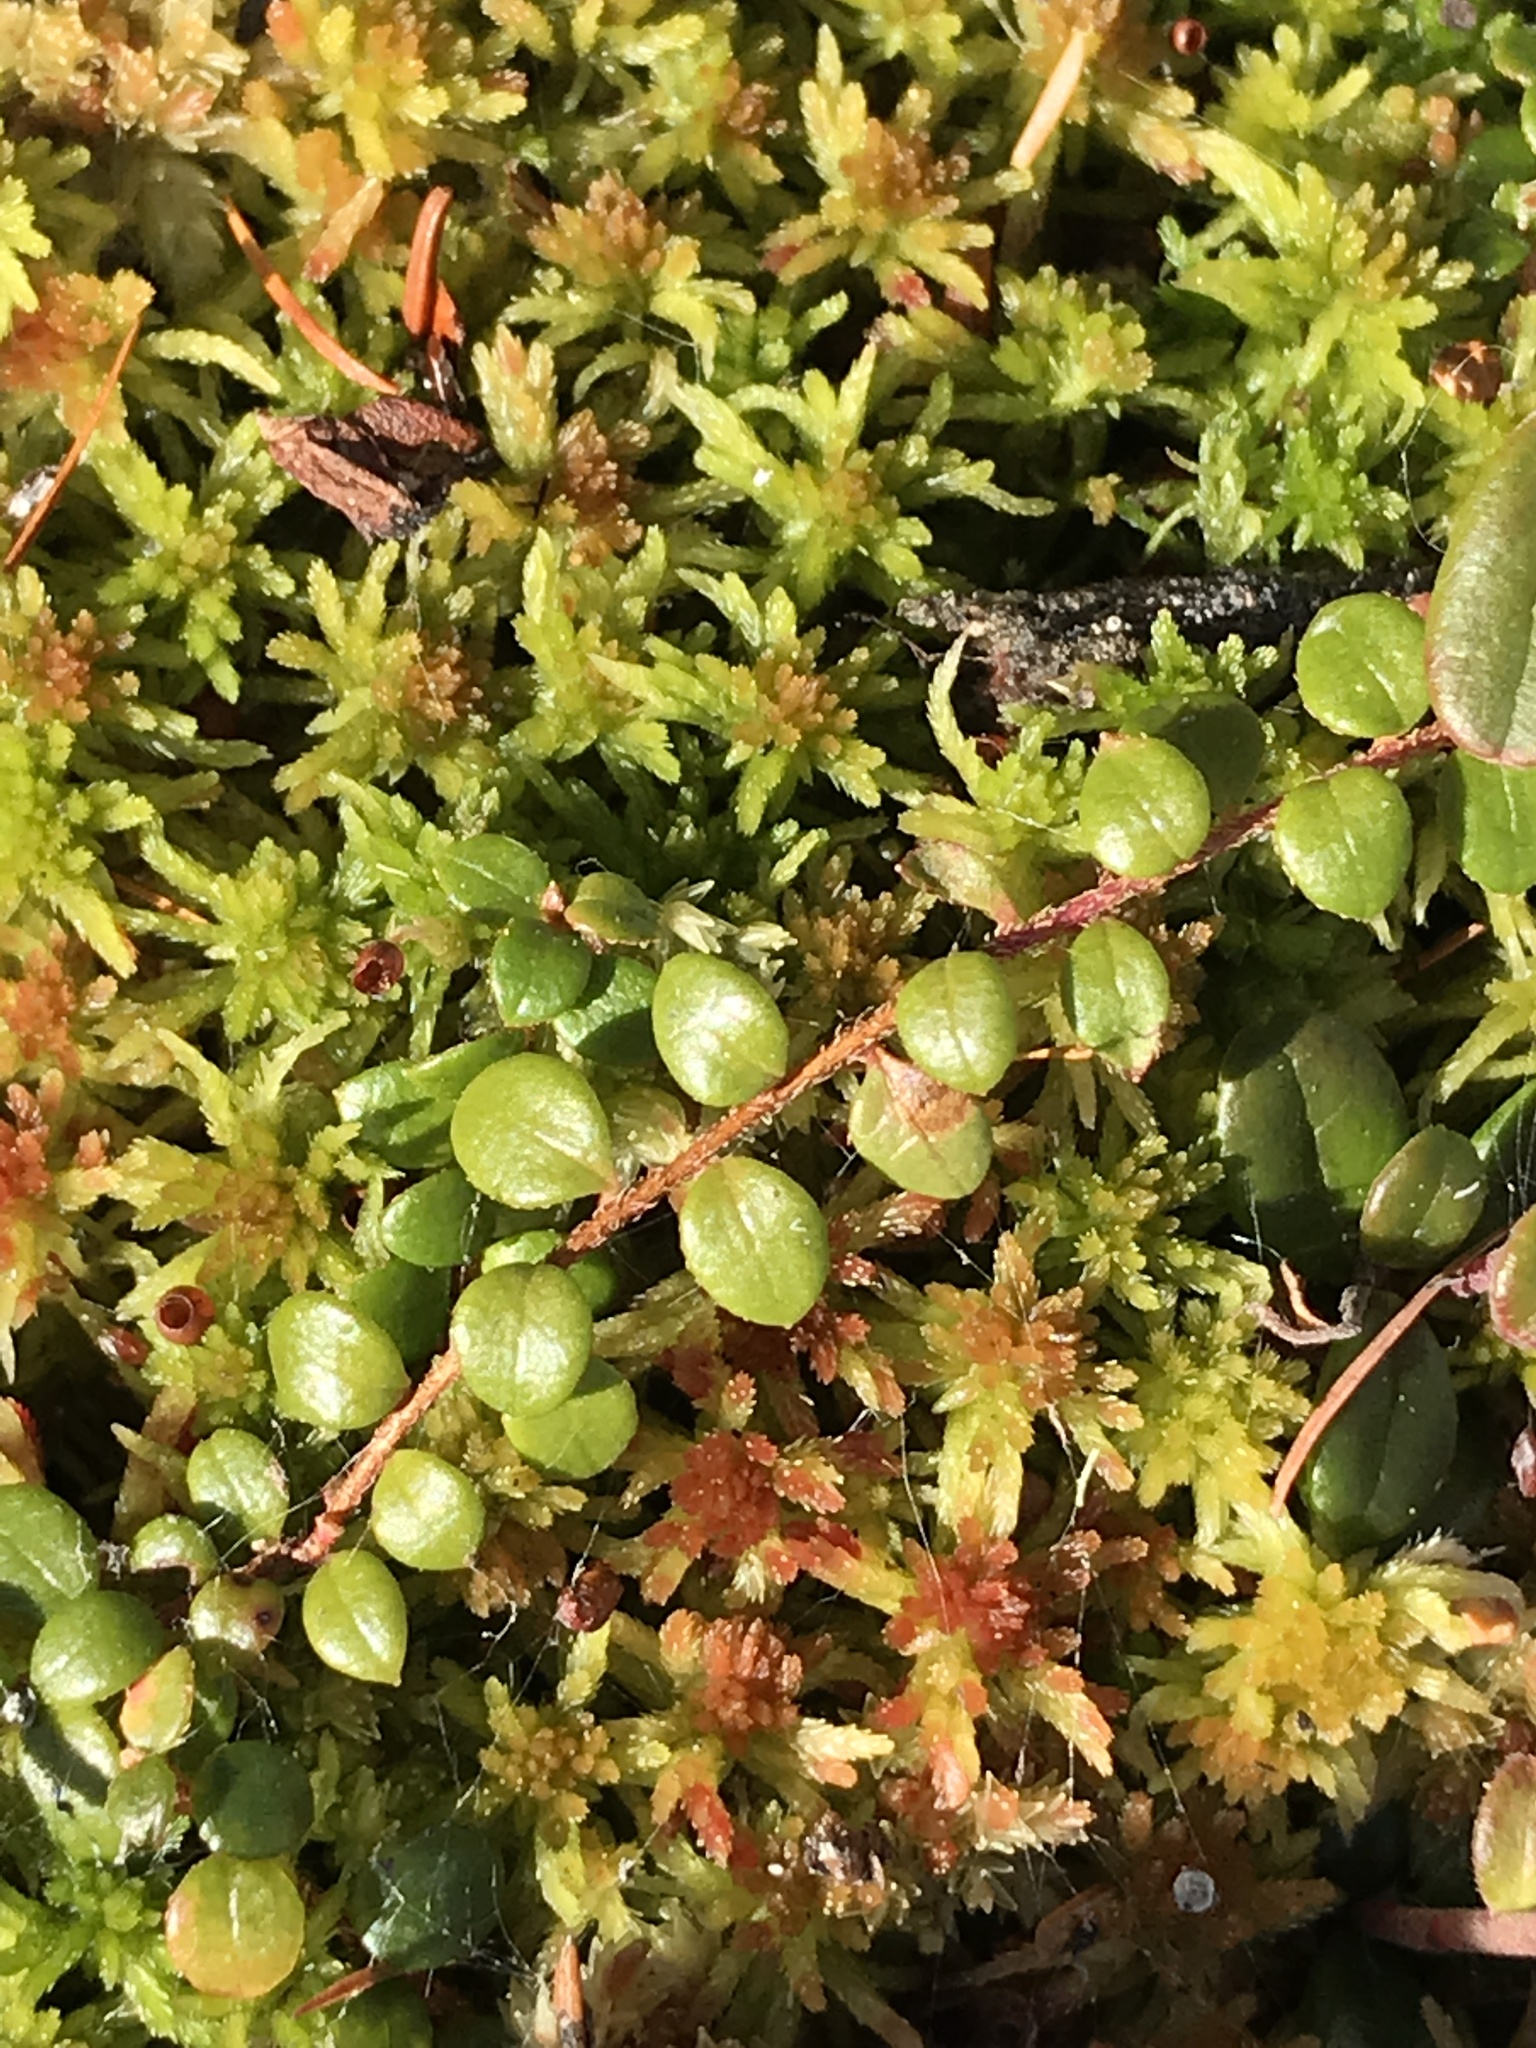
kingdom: Plantae
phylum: Tracheophyta
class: Magnoliopsida
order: Ericales
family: Ericaceae
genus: Gaultheria
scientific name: Gaultheria hispidula
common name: Cancer wintergreen
